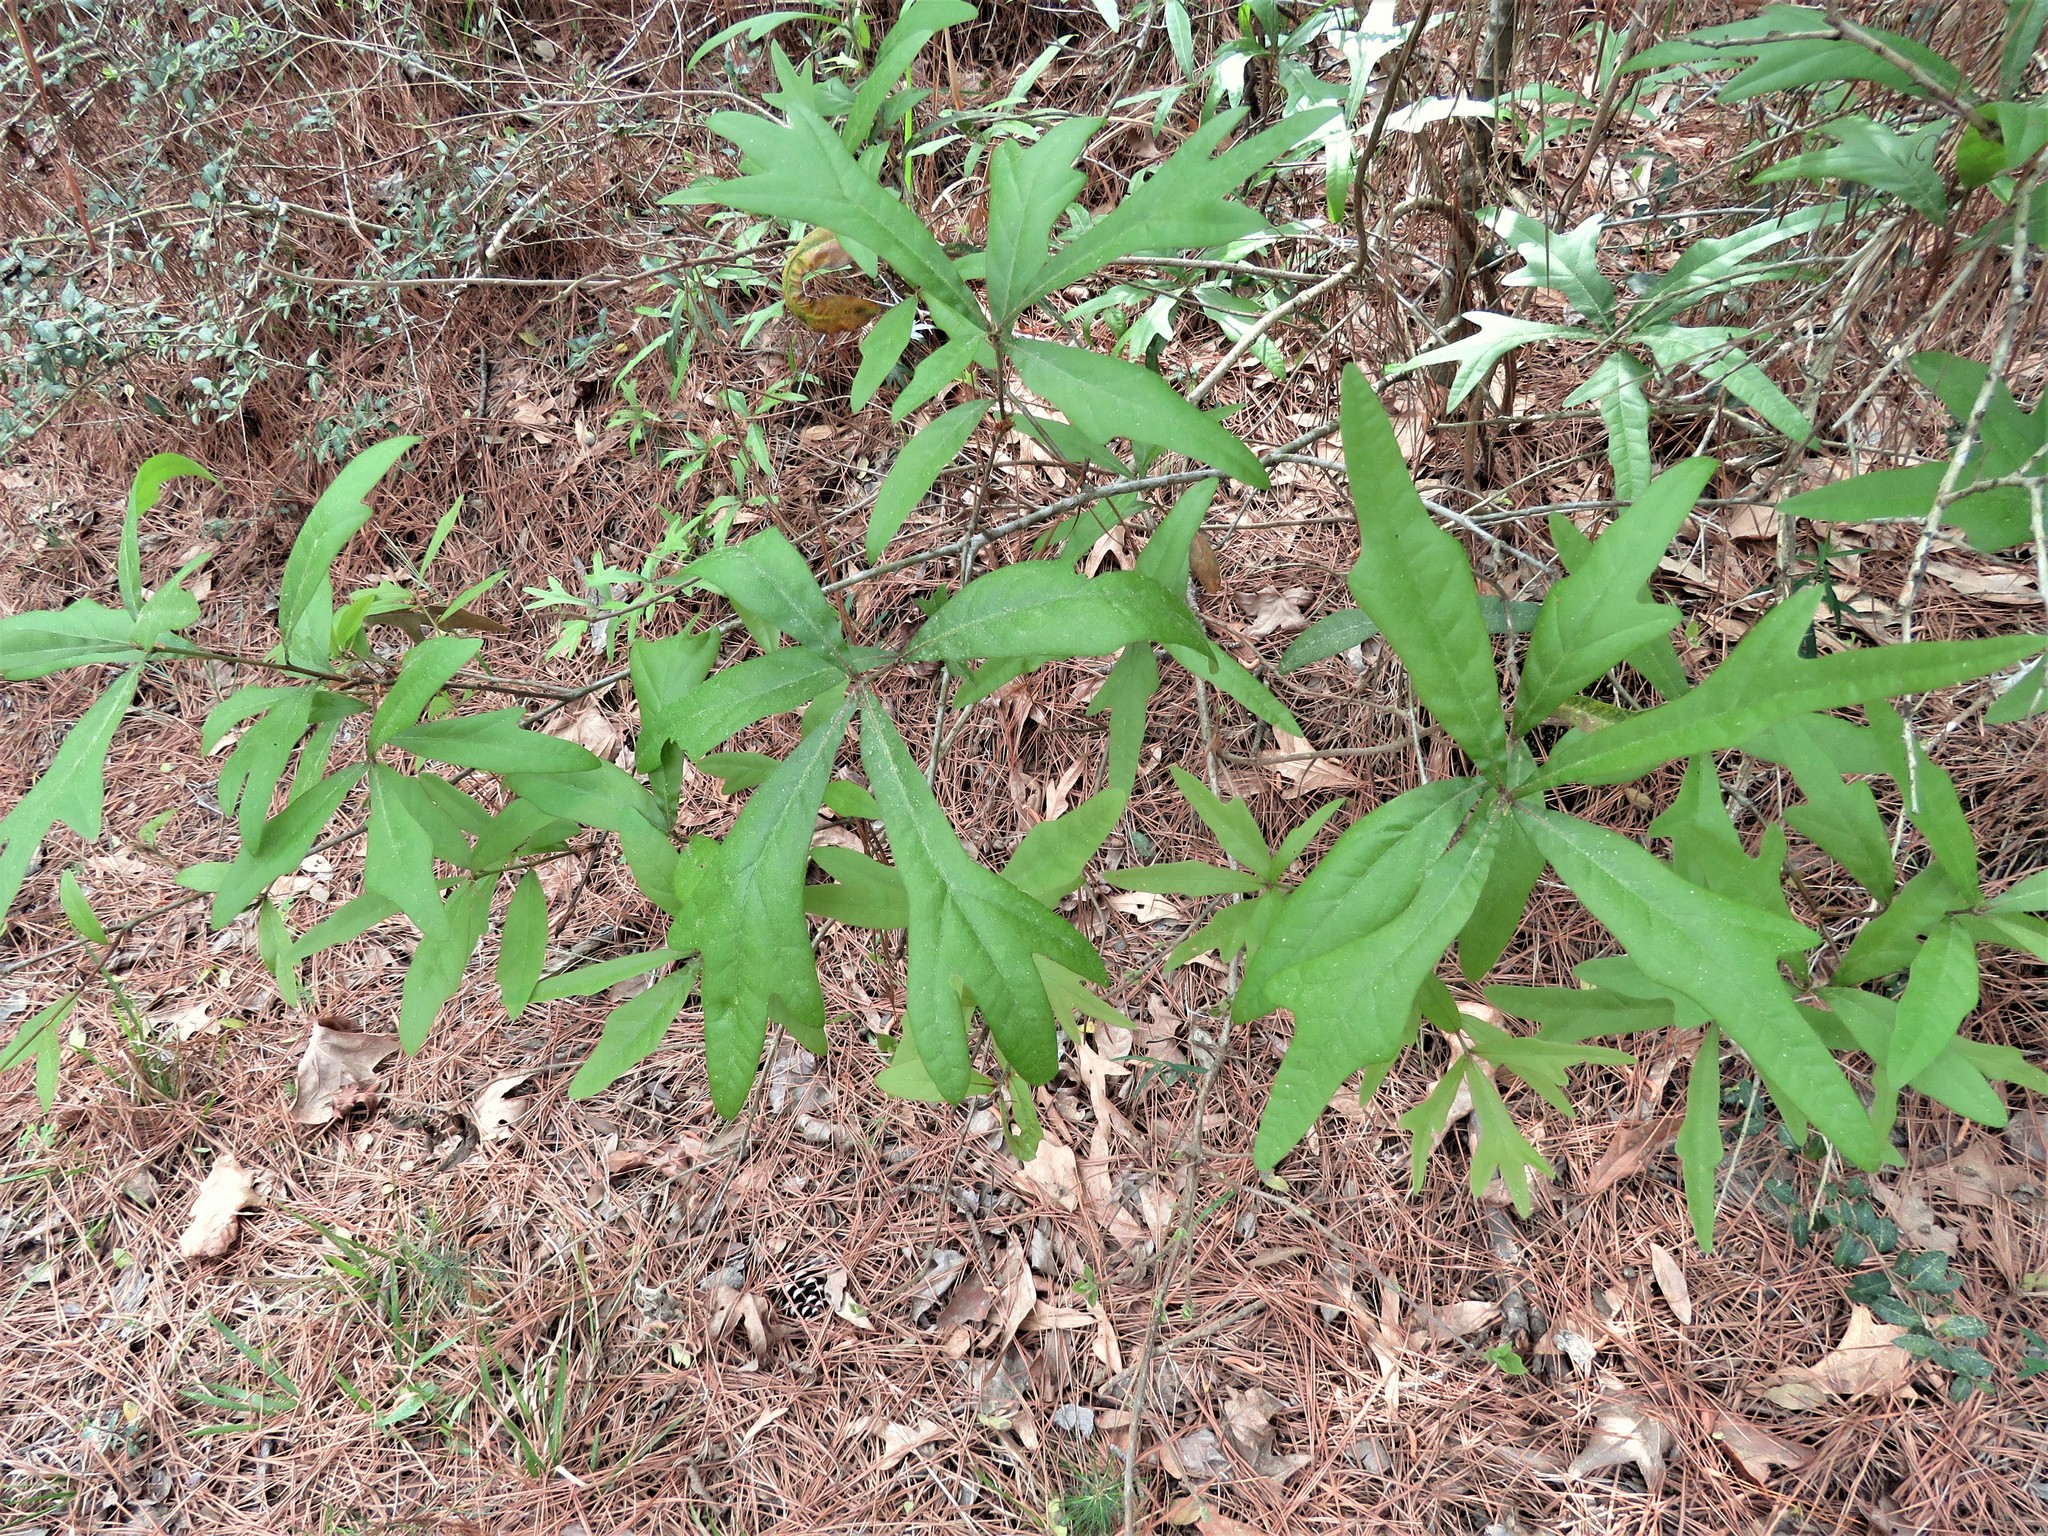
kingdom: Plantae
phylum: Tracheophyta
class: Magnoliopsida
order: Fagales
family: Fagaceae
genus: Quercus
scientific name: Quercus nigra
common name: Water oak
